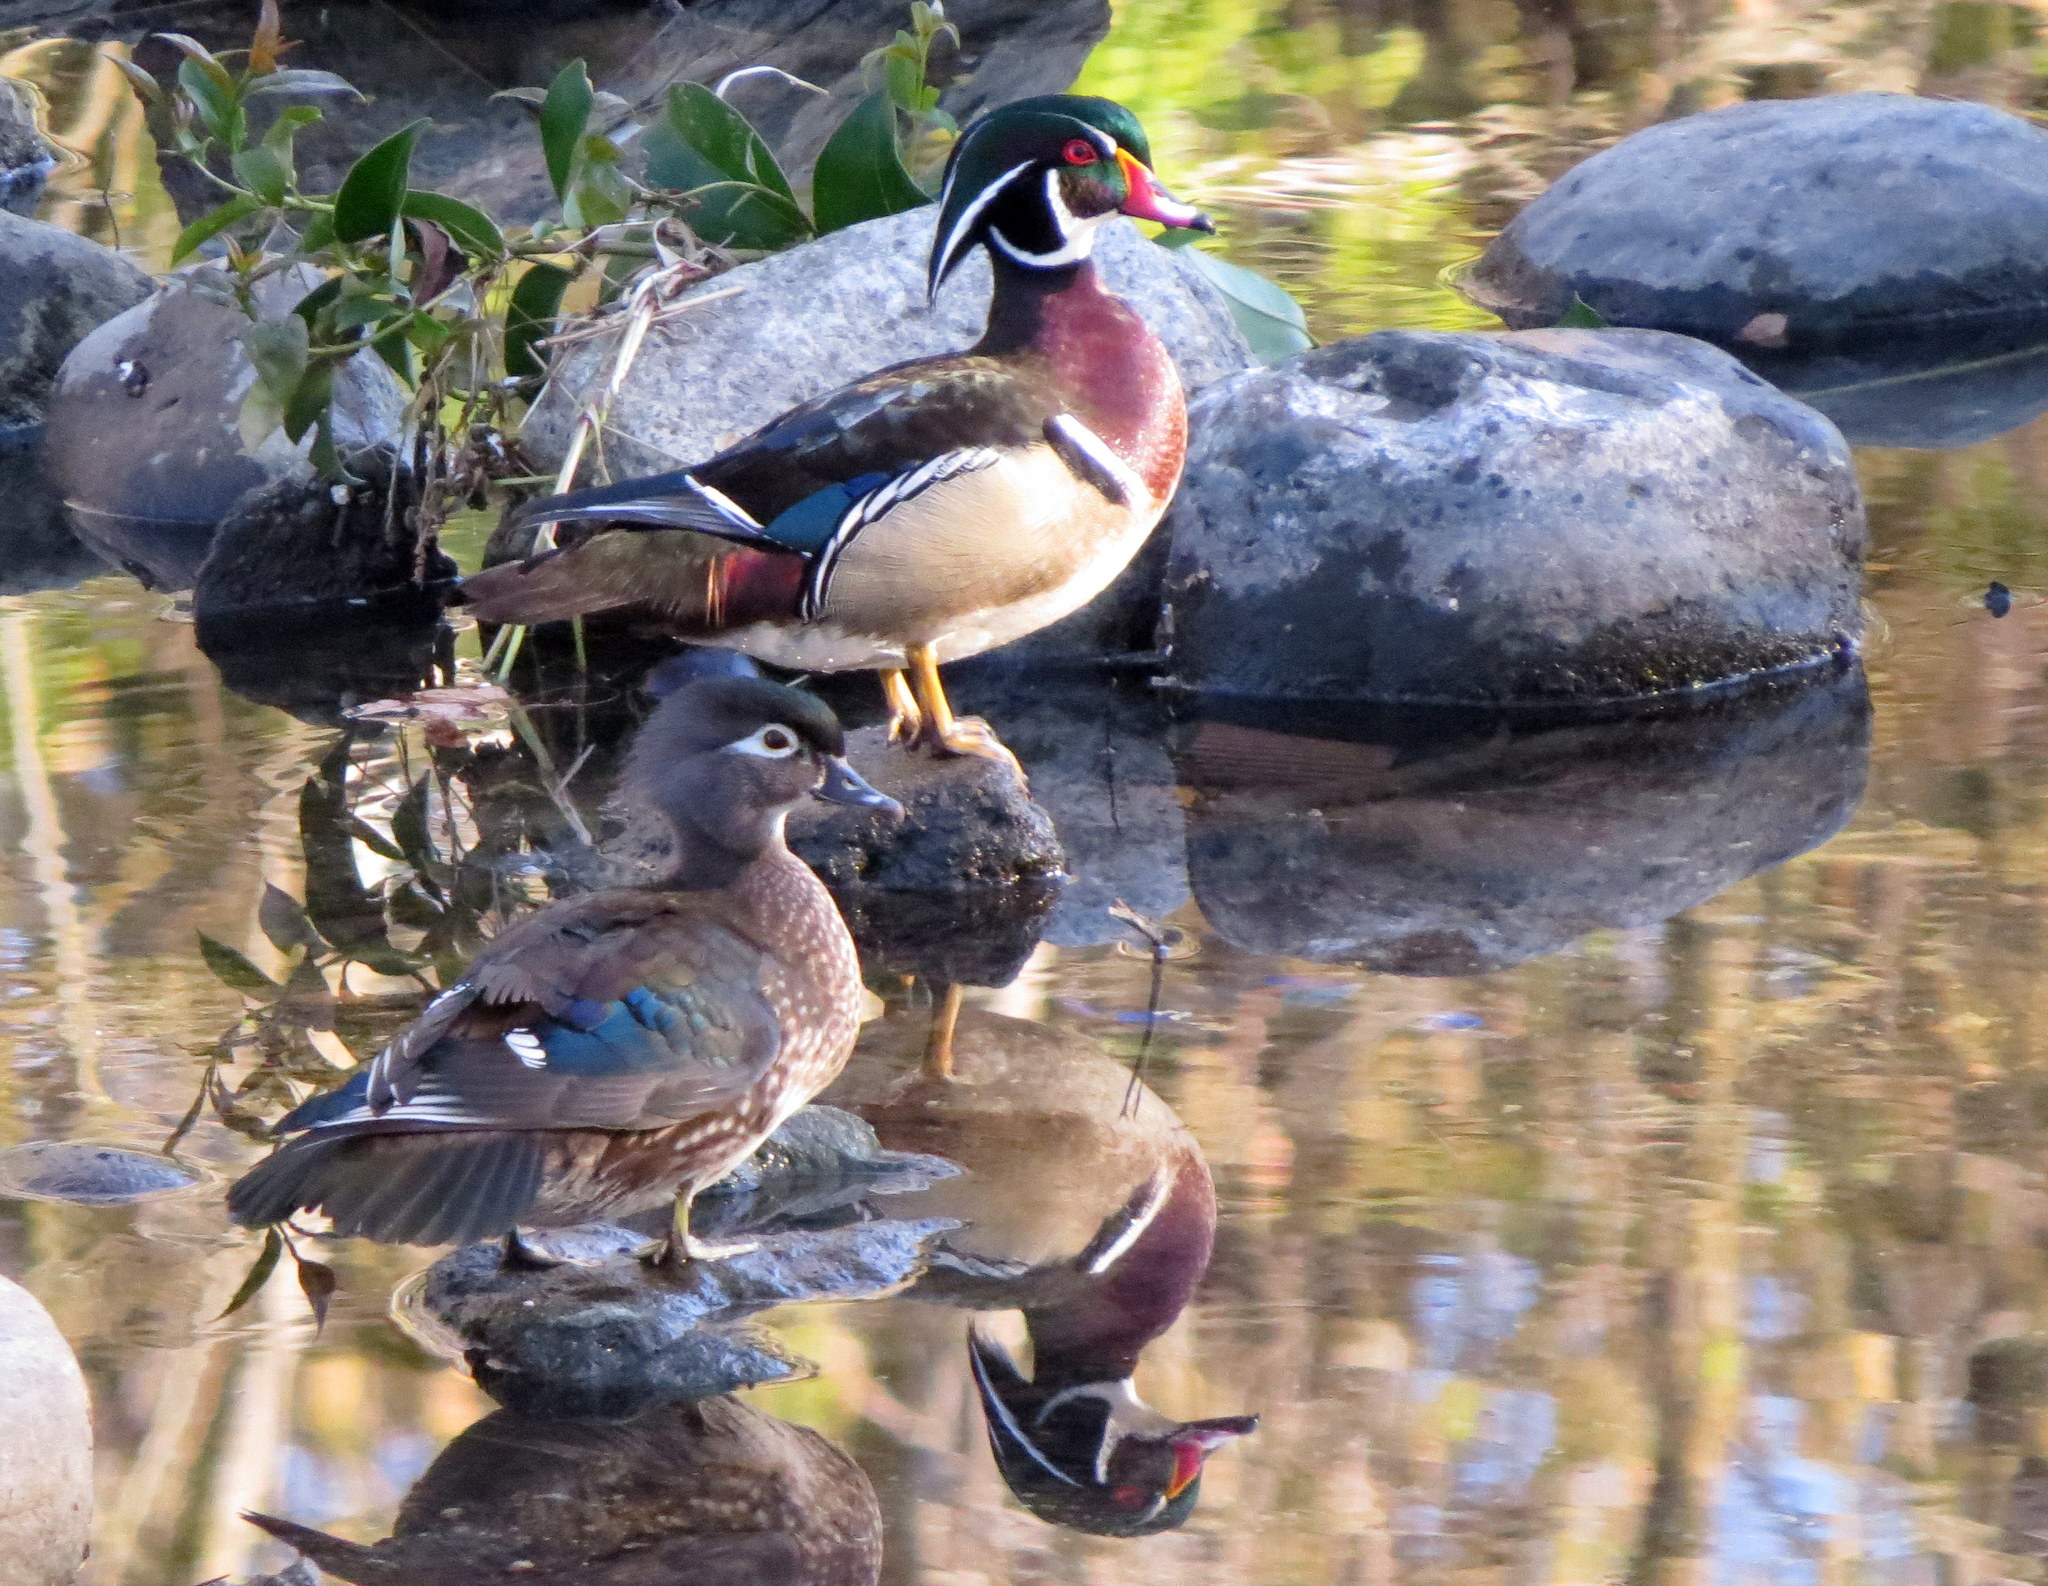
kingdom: Animalia
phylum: Chordata
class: Aves
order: Anseriformes
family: Anatidae
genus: Aix
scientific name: Aix sponsa
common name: Wood duck
